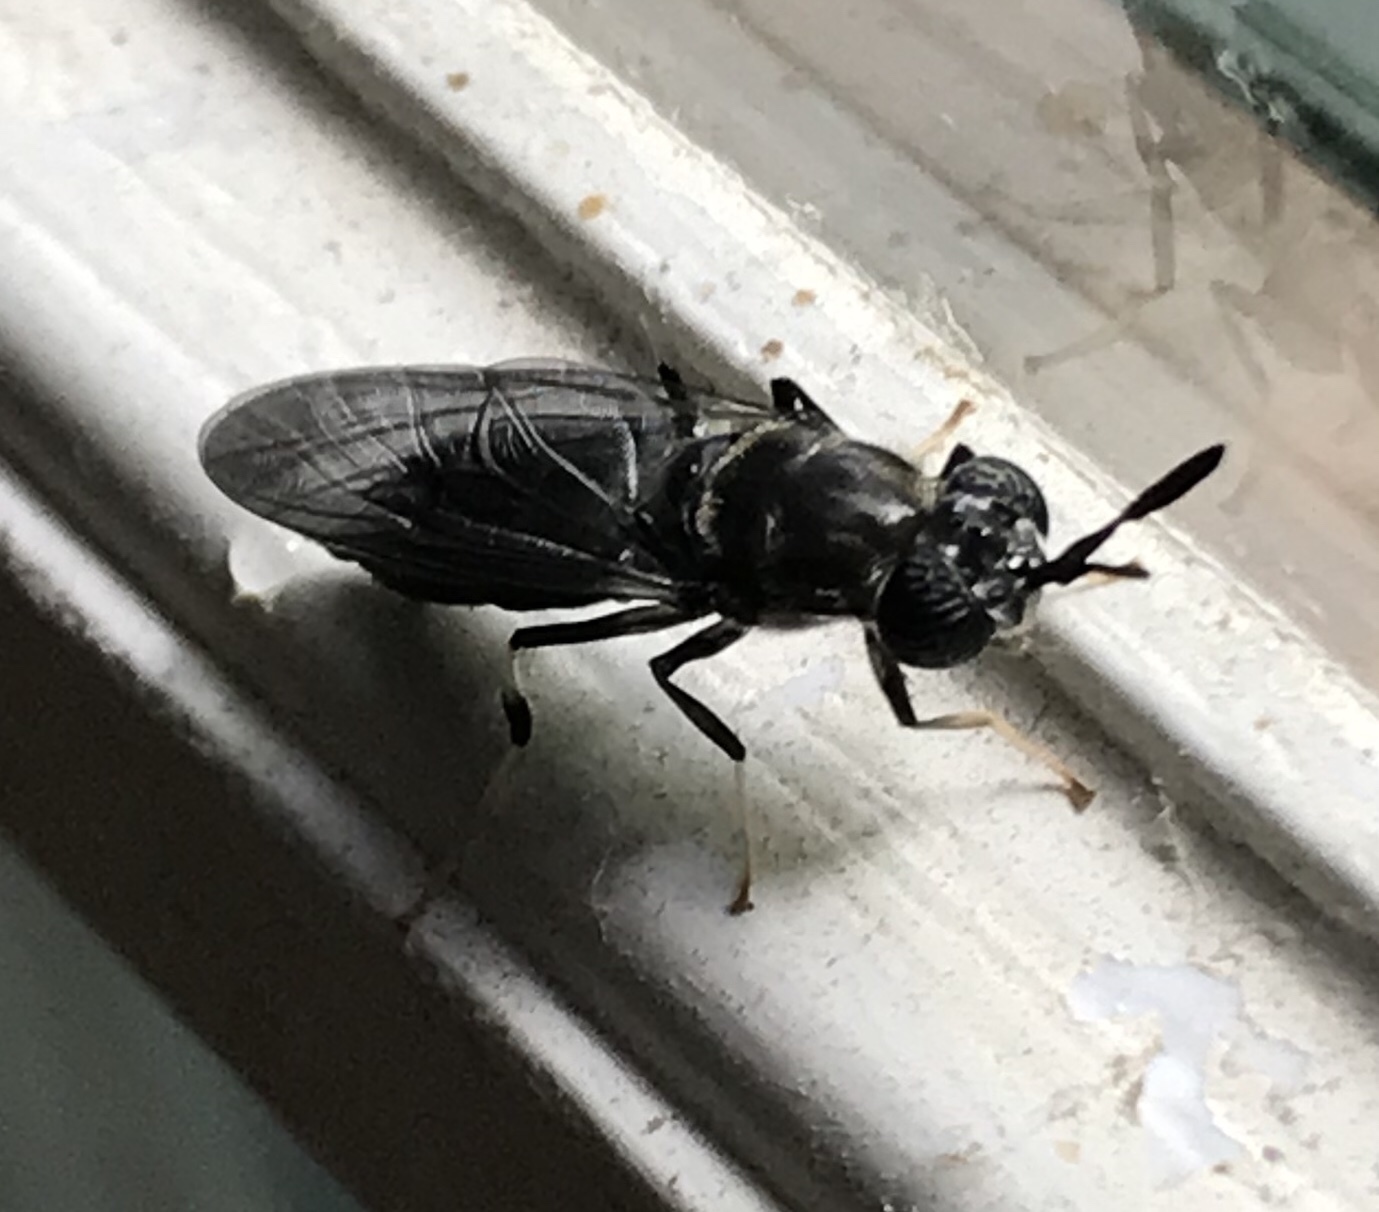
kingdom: Animalia
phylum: Arthropoda
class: Insecta
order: Diptera
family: Stratiomyidae
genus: Hermetia
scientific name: Hermetia illucens
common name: Black soldier fly
